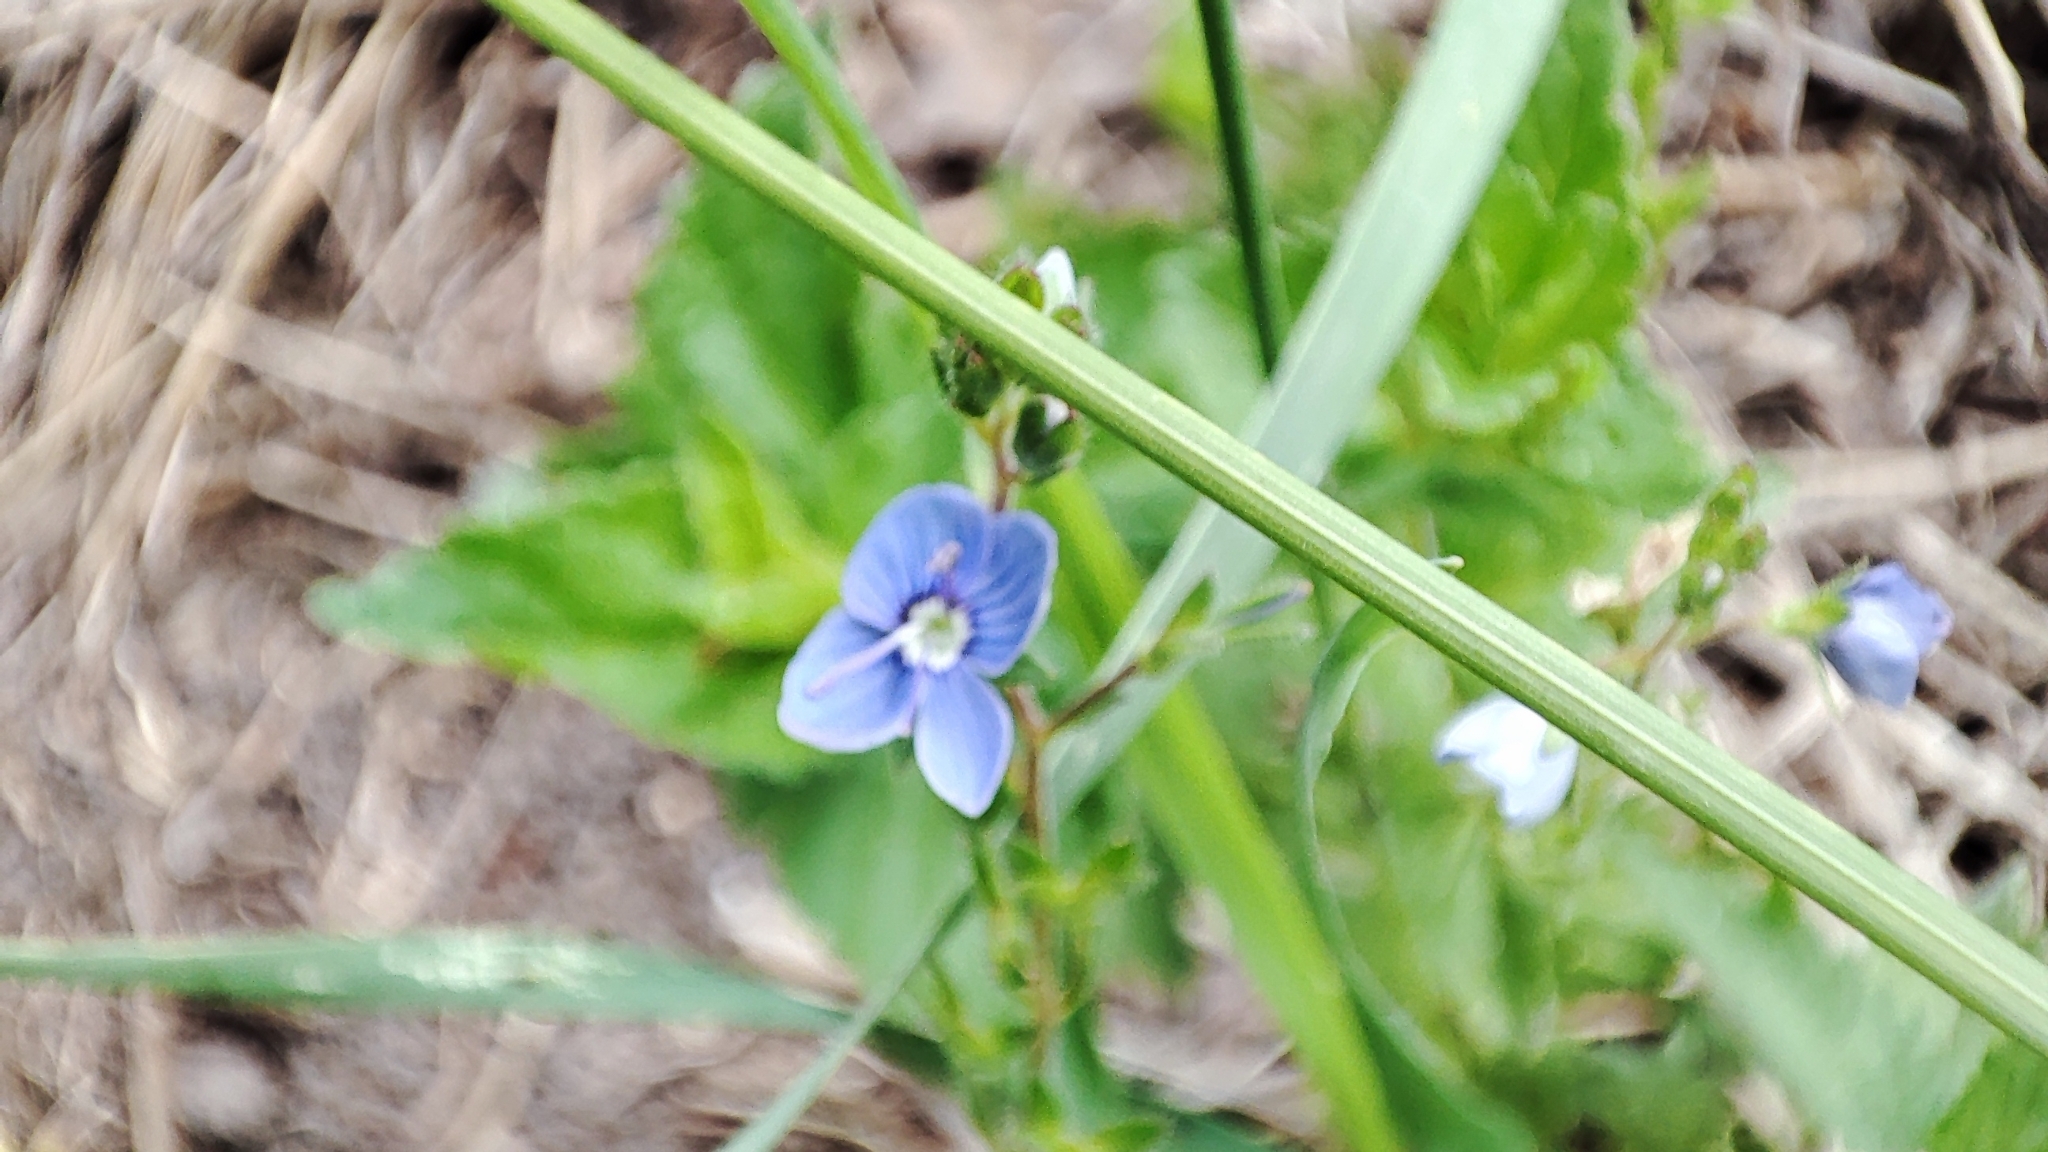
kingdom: Plantae
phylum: Tracheophyta
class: Magnoliopsida
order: Lamiales
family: Plantaginaceae
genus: Veronica
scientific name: Veronica chamaedrys
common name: Germander speedwell
